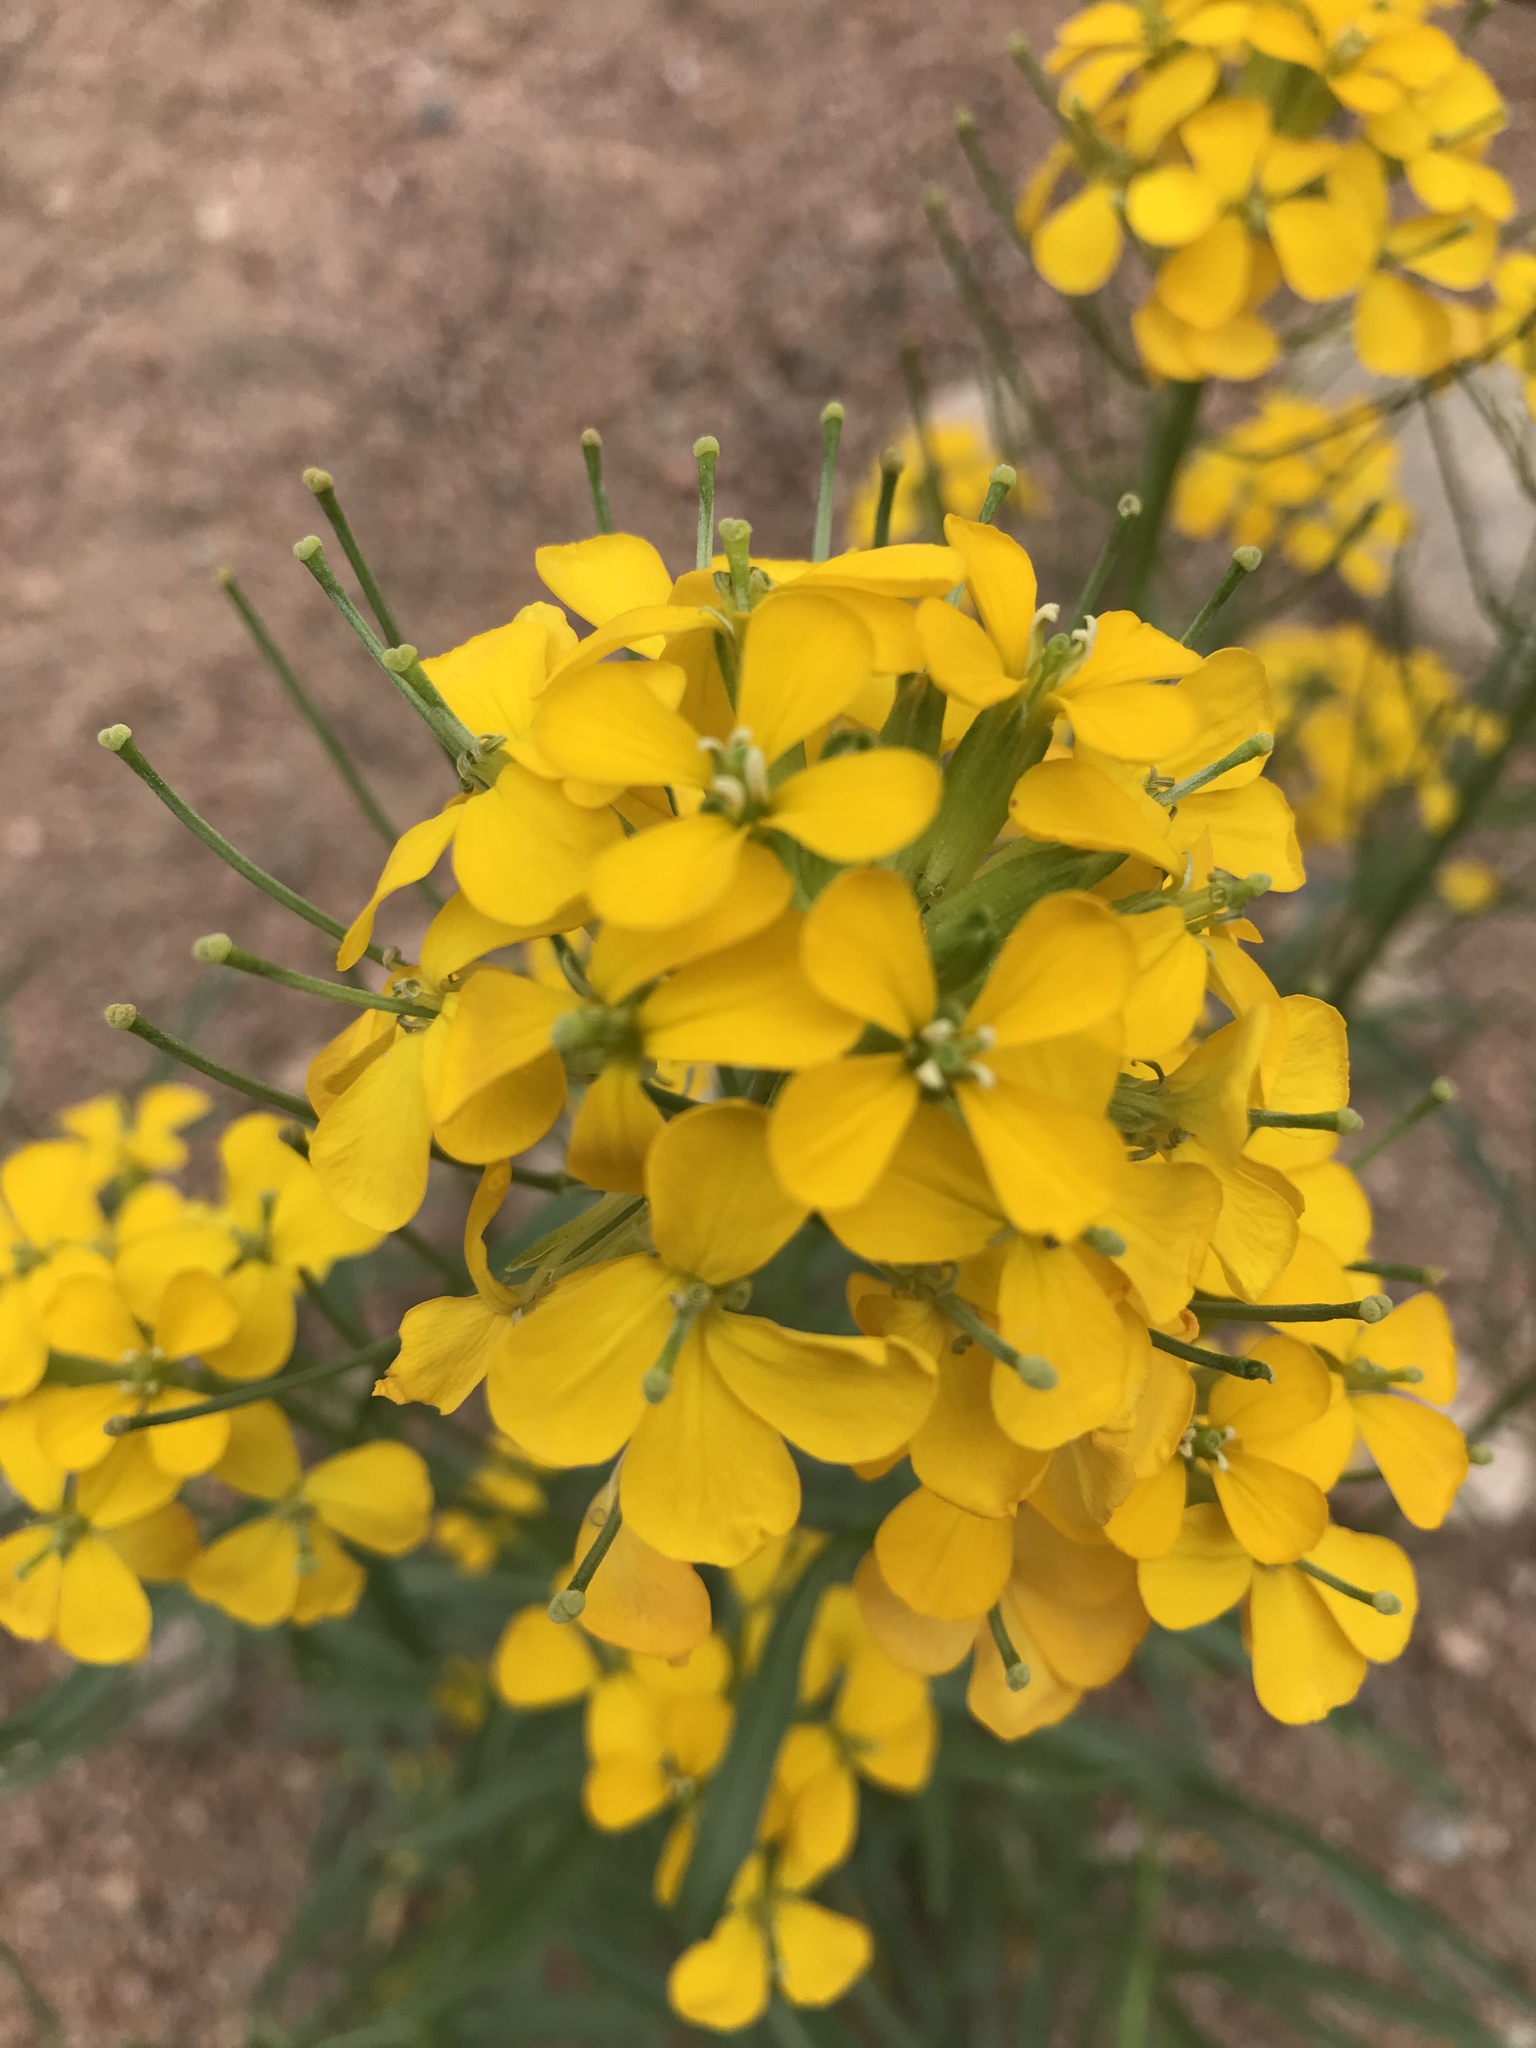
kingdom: Plantae
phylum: Tracheophyta
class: Magnoliopsida
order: Brassicales
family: Brassicaceae
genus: Erysimum
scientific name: Erysimum capitatum
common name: Western wallflower
